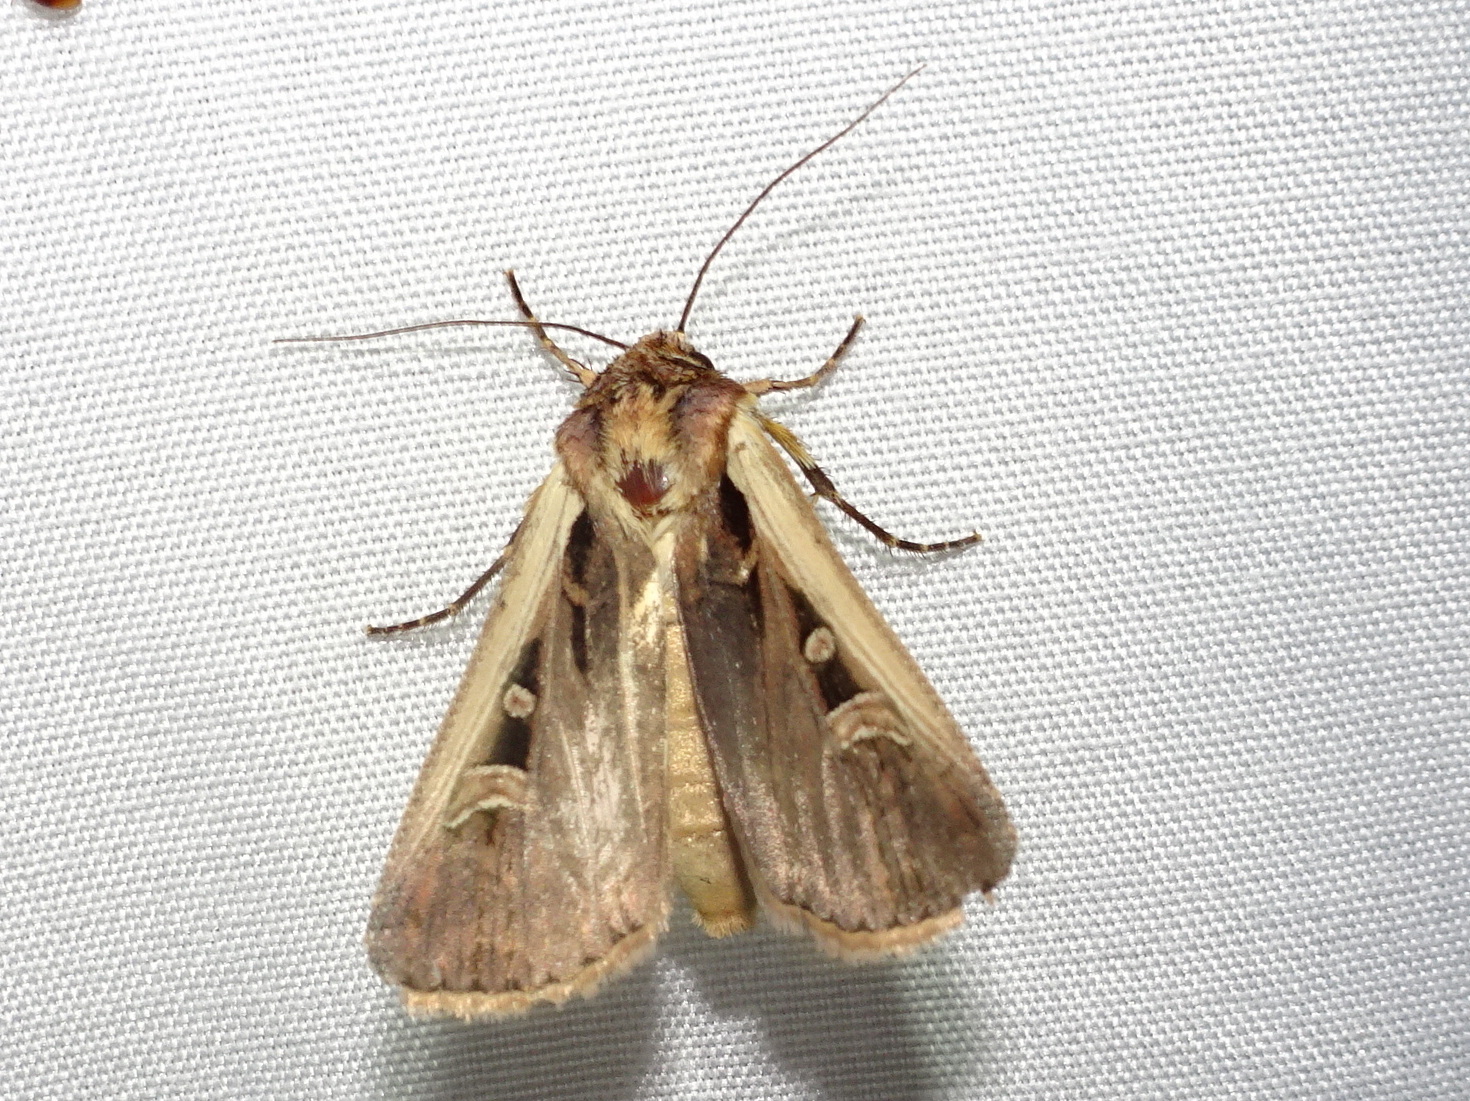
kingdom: Animalia
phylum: Arthropoda
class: Insecta
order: Lepidoptera
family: Noctuidae
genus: Striacosta
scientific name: Striacosta albicosta
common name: Western bean cutworm moth
